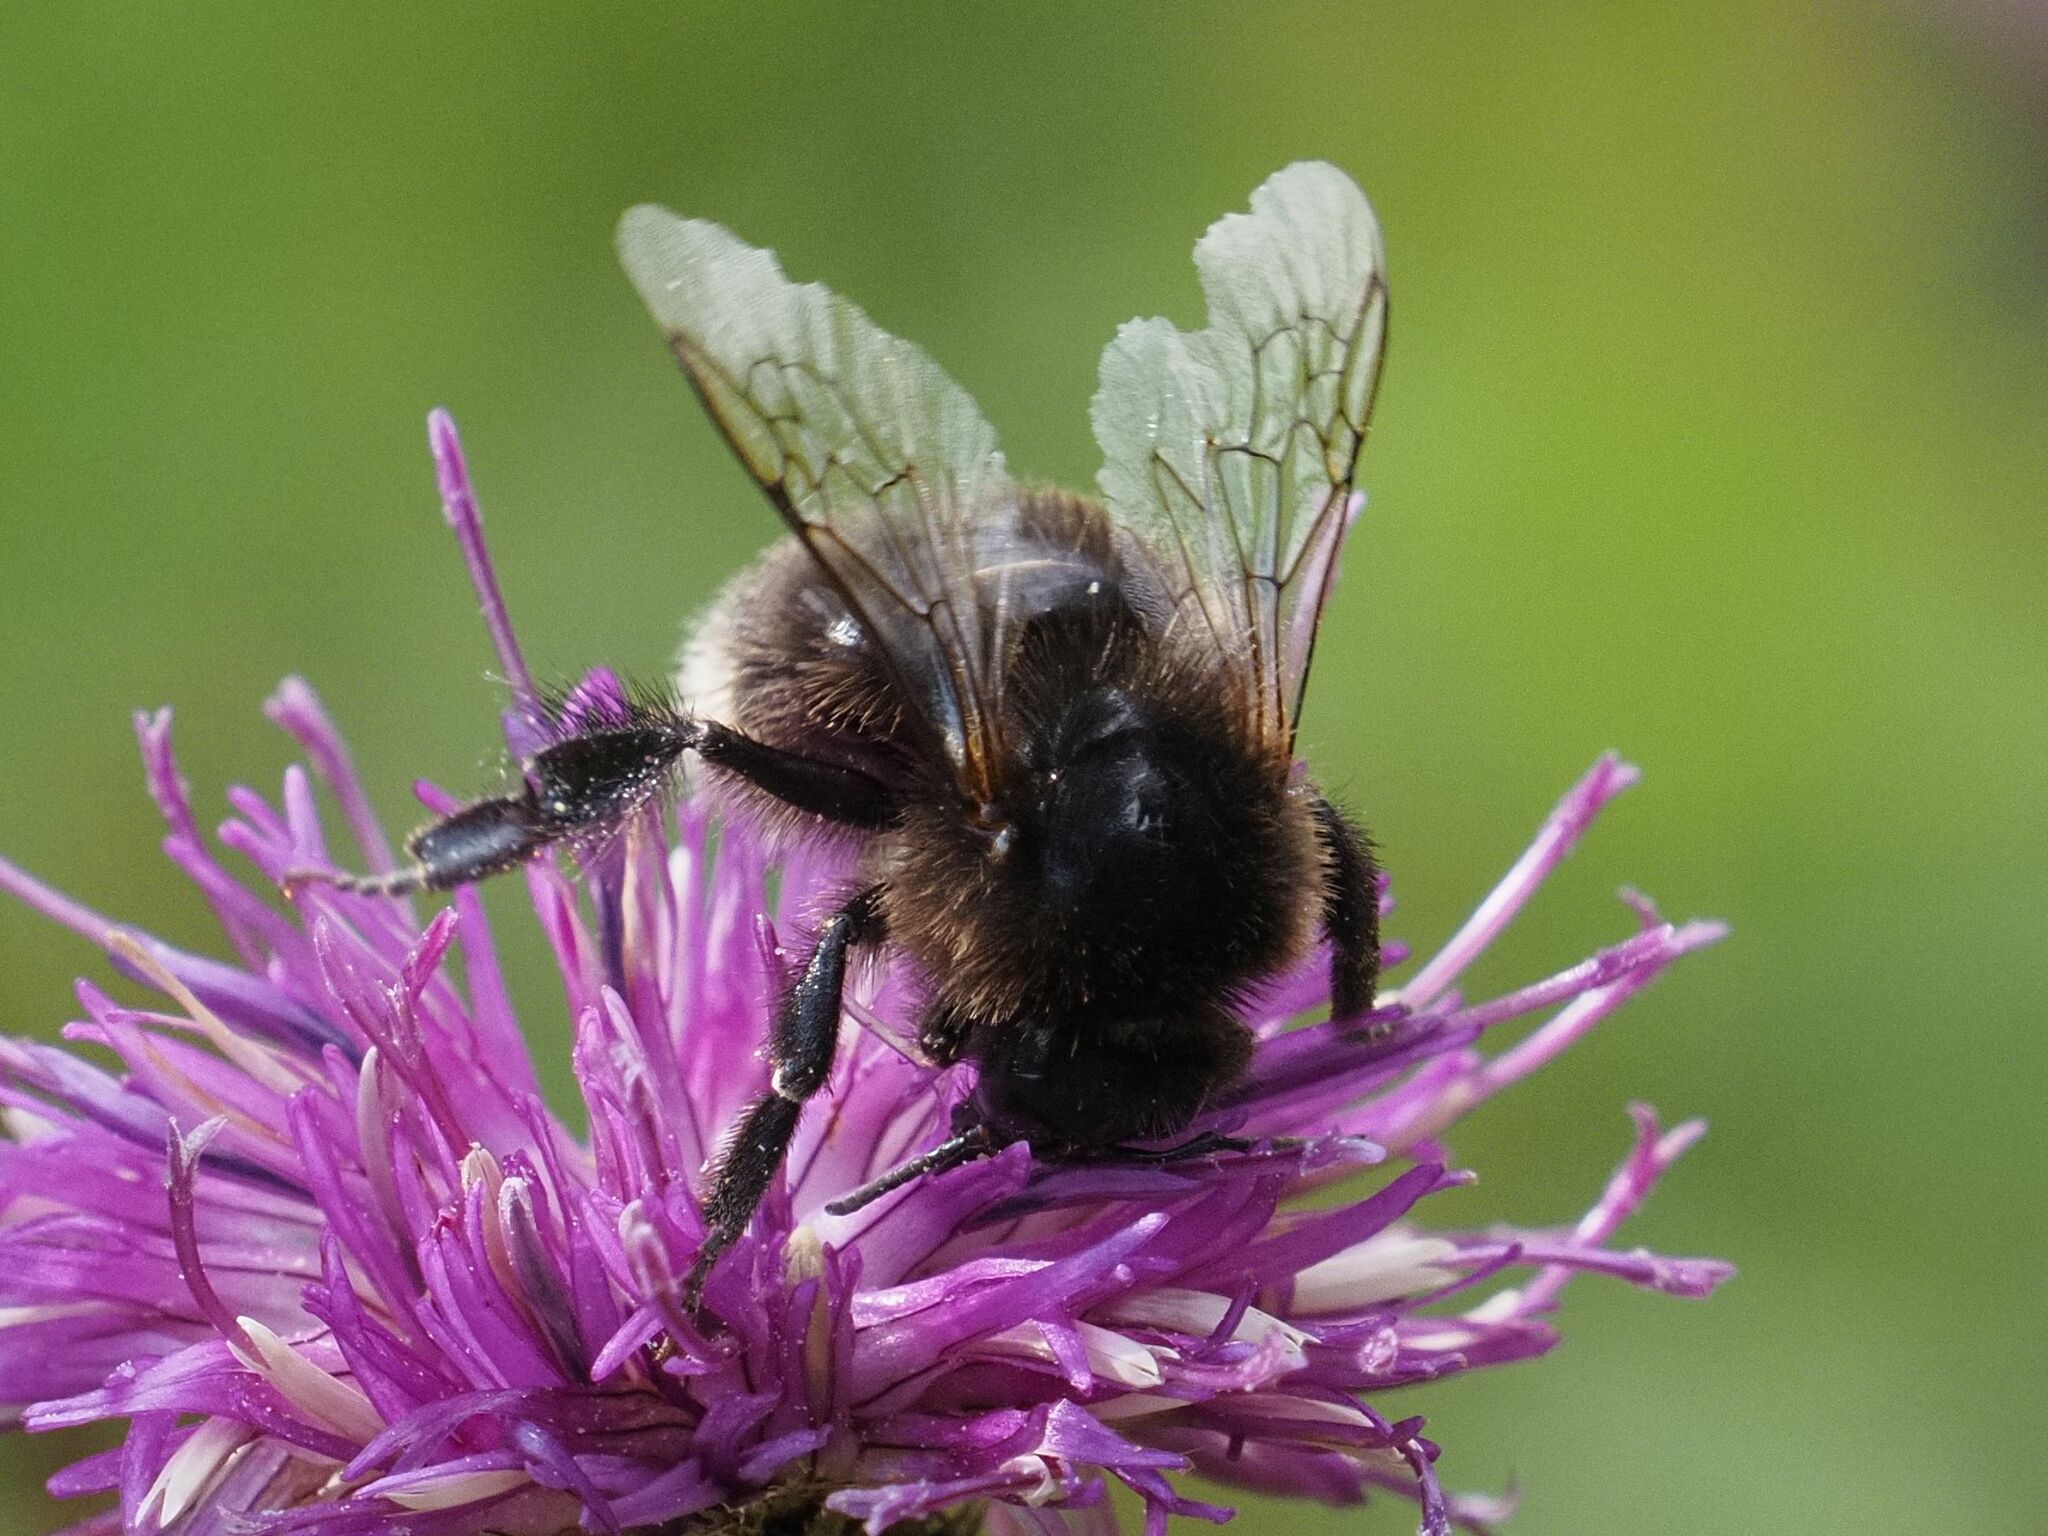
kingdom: Animalia
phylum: Arthropoda
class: Insecta
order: Hymenoptera
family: Apidae
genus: Bombus
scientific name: Bombus hypnorum
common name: New garden bumblebee
